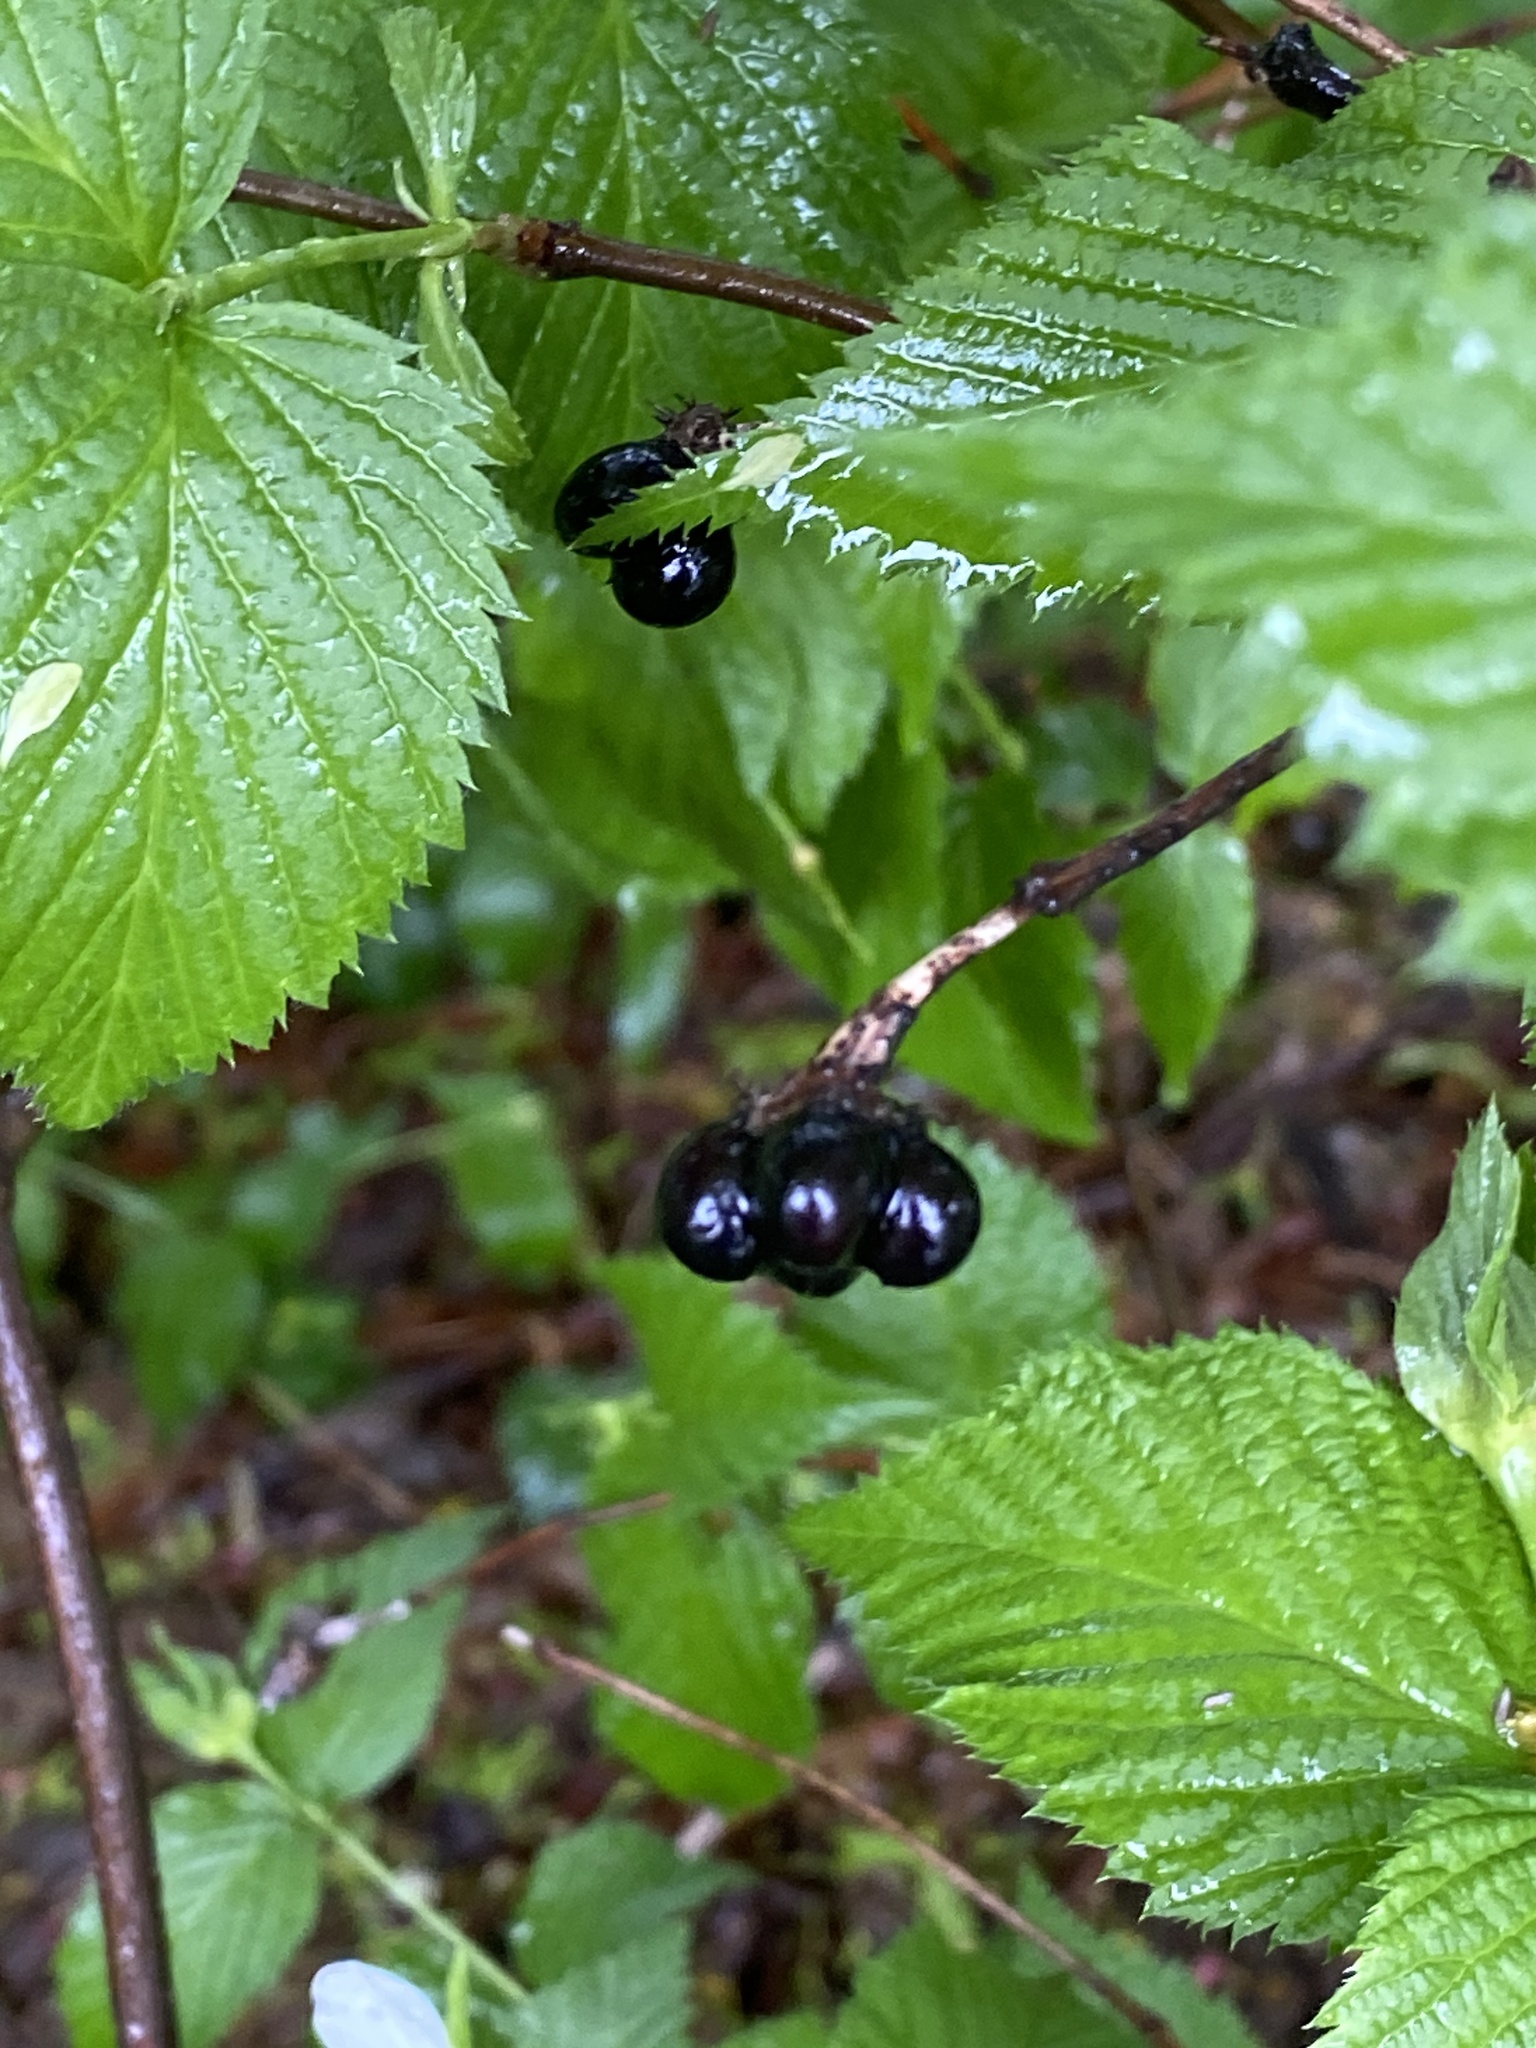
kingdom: Plantae
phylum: Tracheophyta
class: Magnoliopsida
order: Rosales
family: Rosaceae
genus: Rhodotypos
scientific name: Rhodotypos scandens
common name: Jetbead
